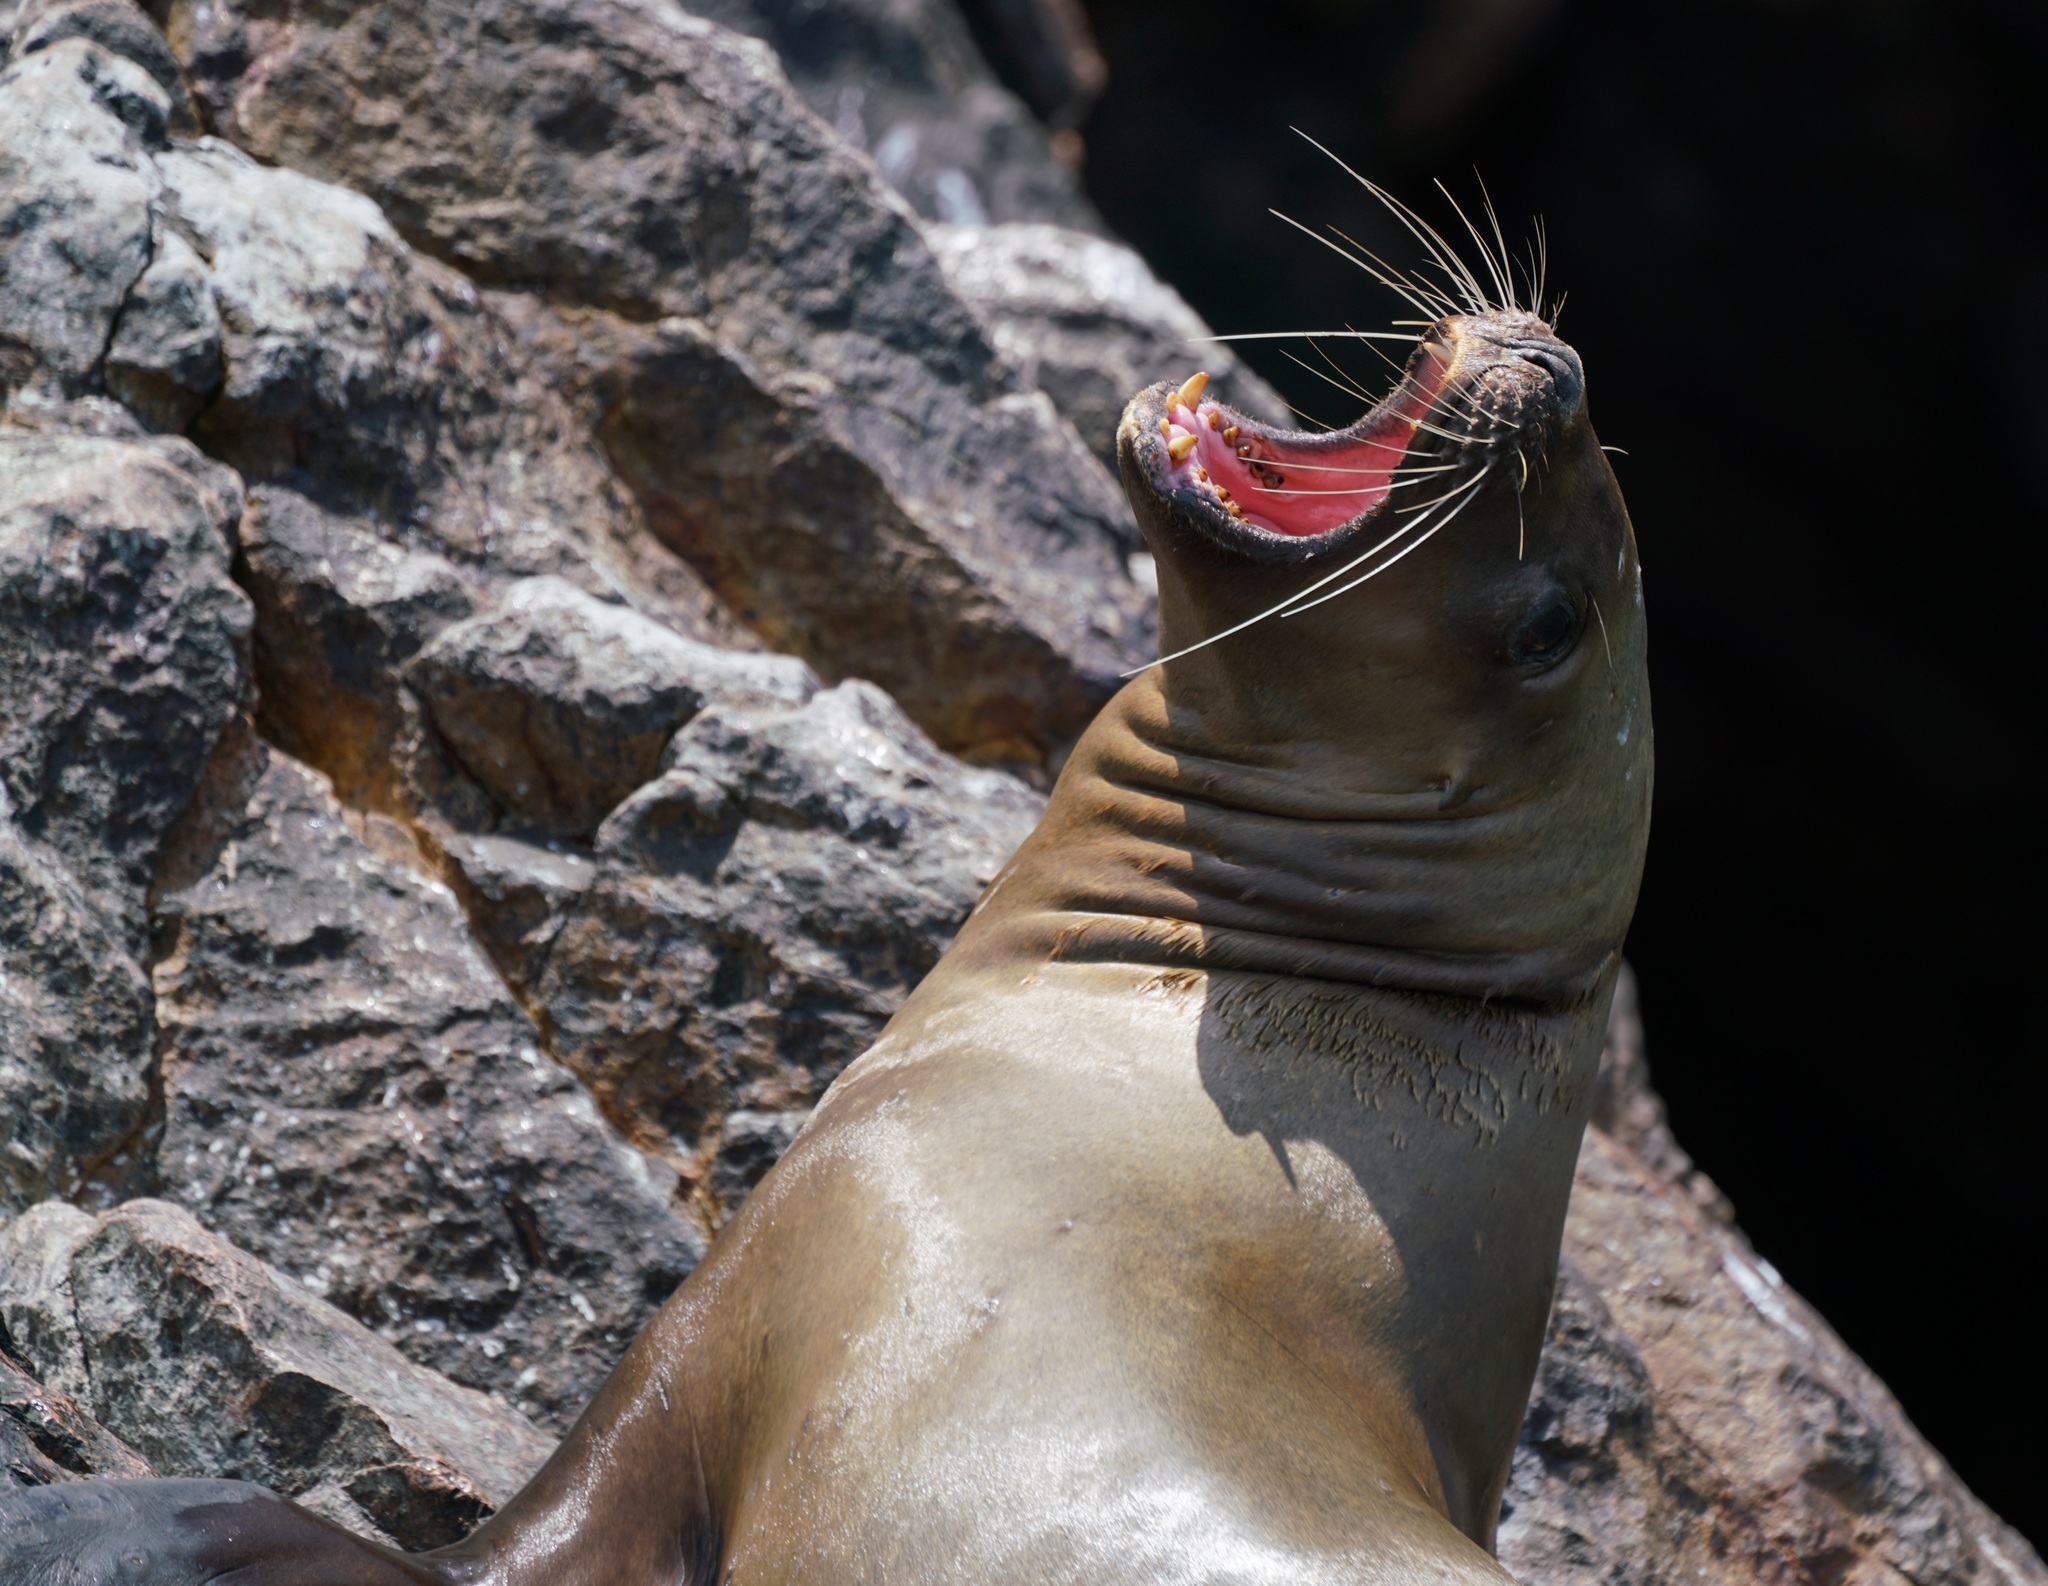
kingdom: Animalia
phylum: Chordata
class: Mammalia
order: Carnivora
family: Otariidae
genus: Otaria
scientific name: Otaria byronia
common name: South american sea lion
